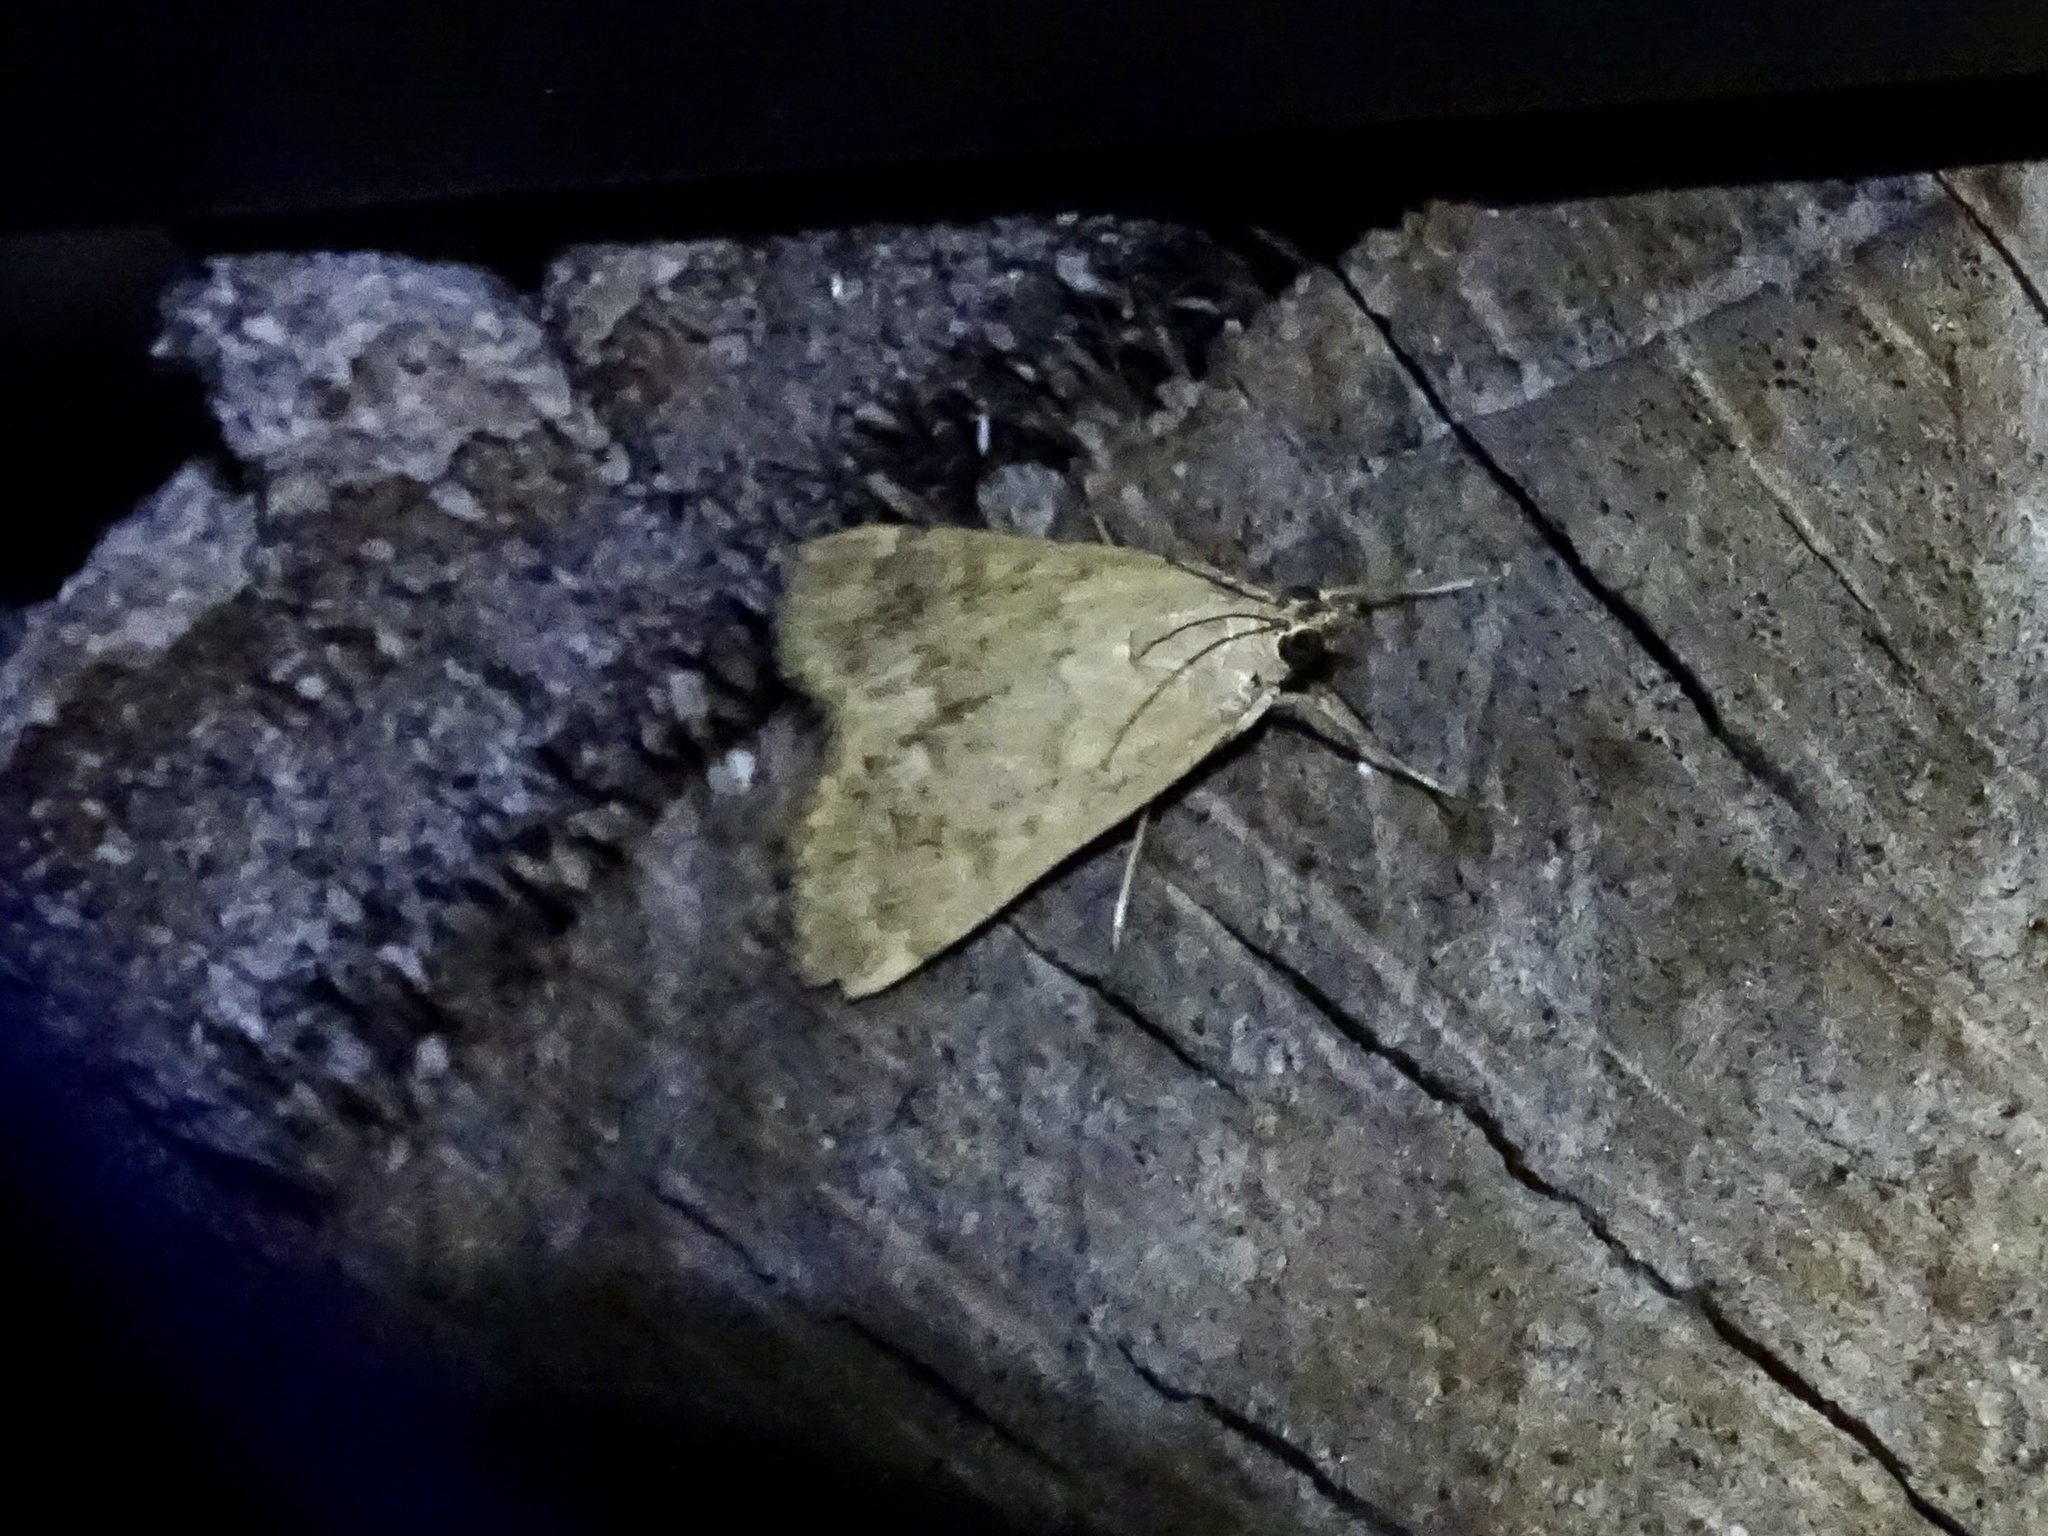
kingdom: Animalia
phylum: Arthropoda
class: Insecta
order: Lepidoptera
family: Crambidae
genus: Achyra
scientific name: Achyra rantalis
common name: Garden webworm
